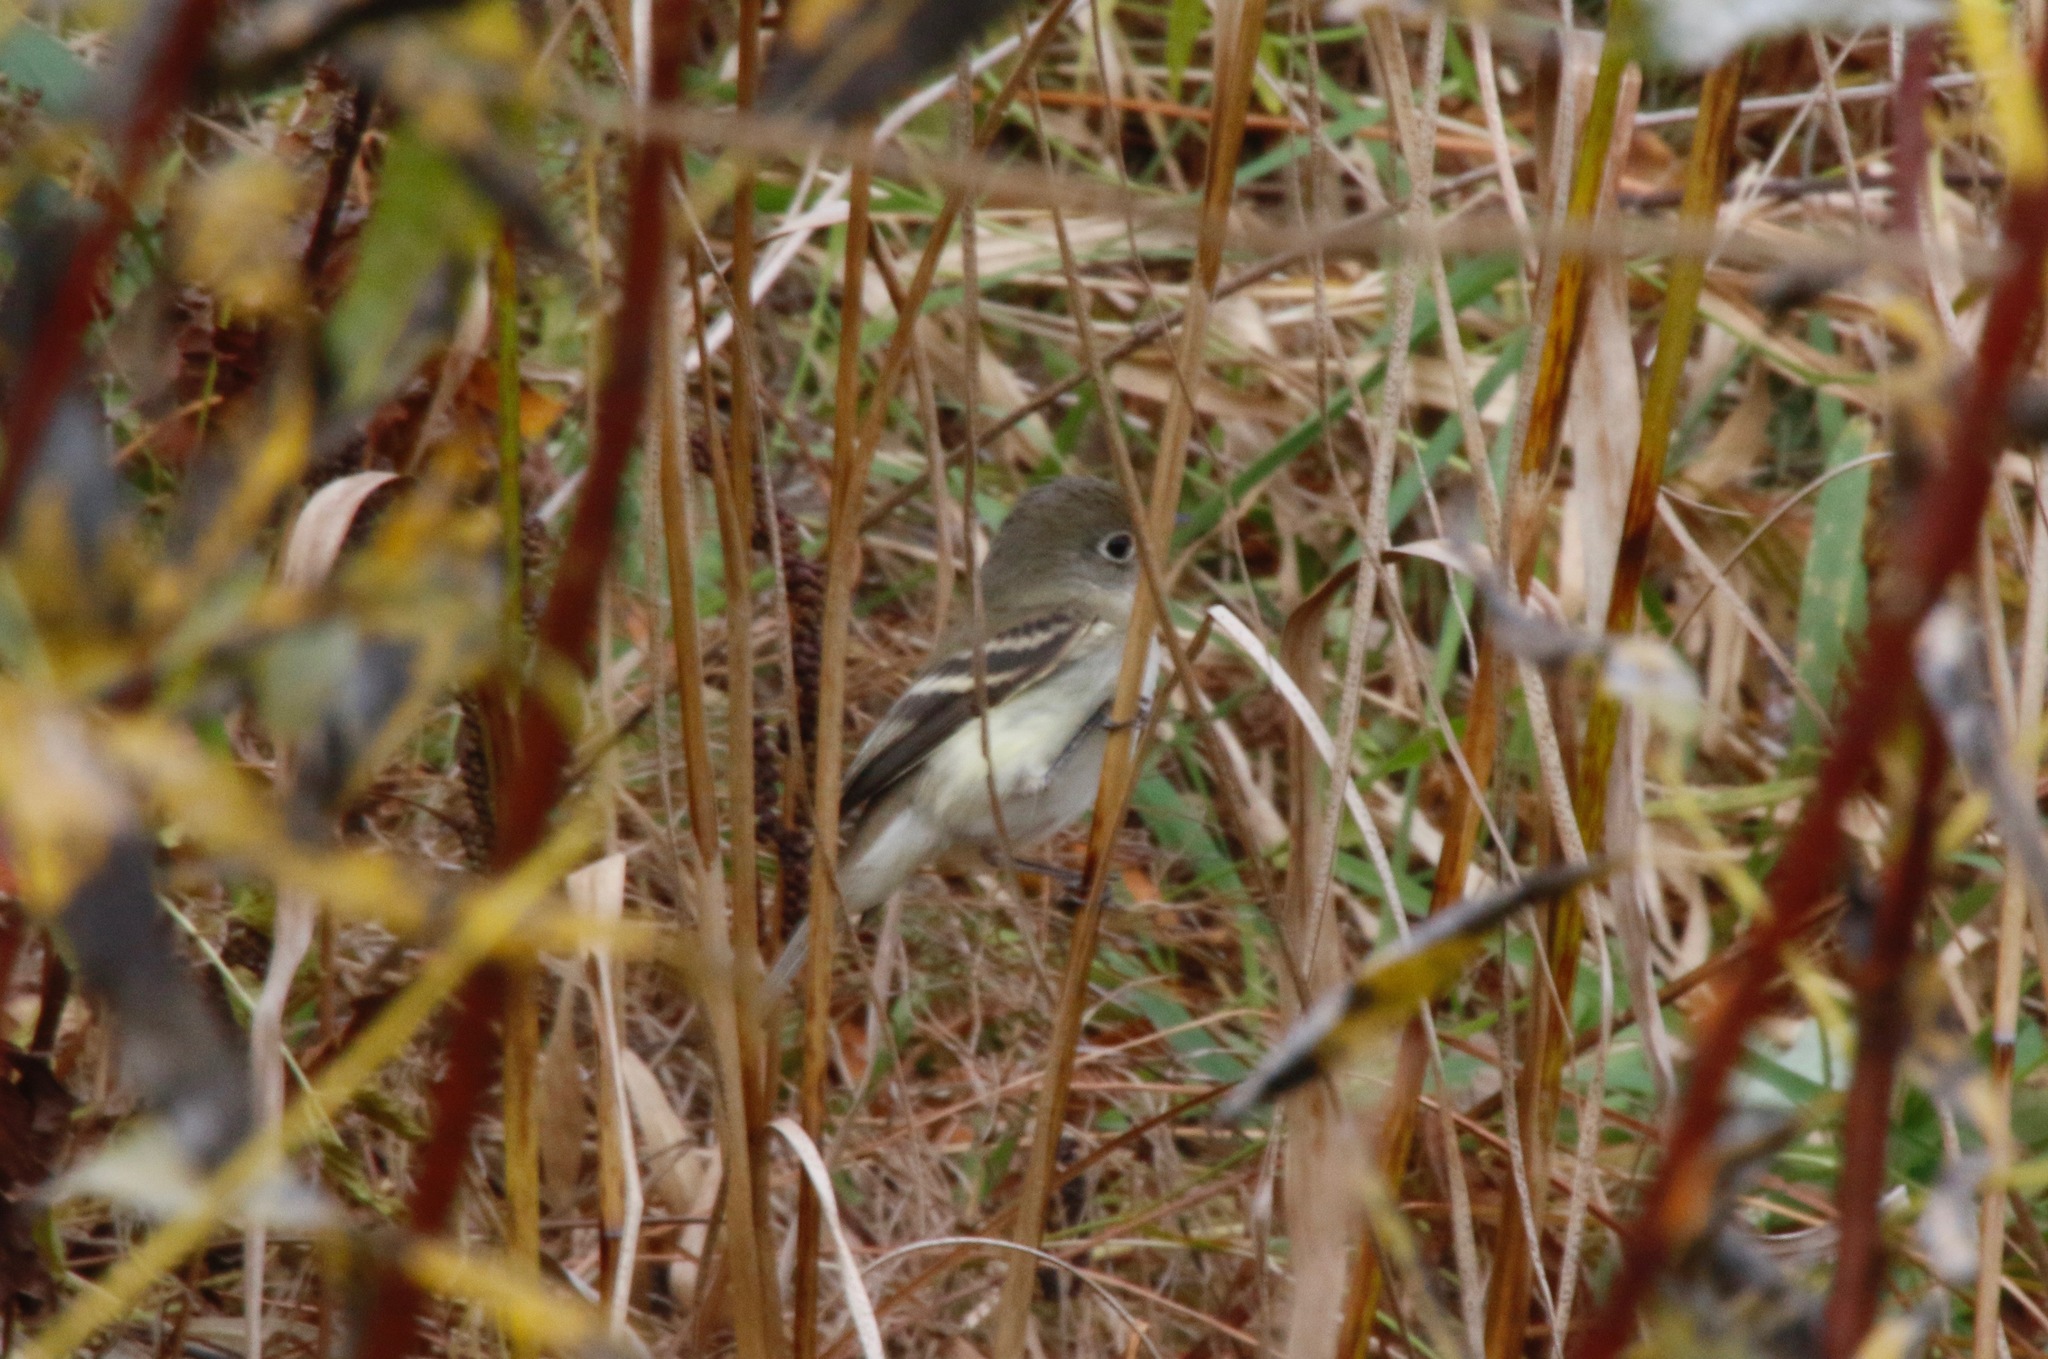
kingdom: Animalia
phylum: Chordata
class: Aves
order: Passeriformes
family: Tyrannidae
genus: Empidonax
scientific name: Empidonax minimus
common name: Least flycatcher
